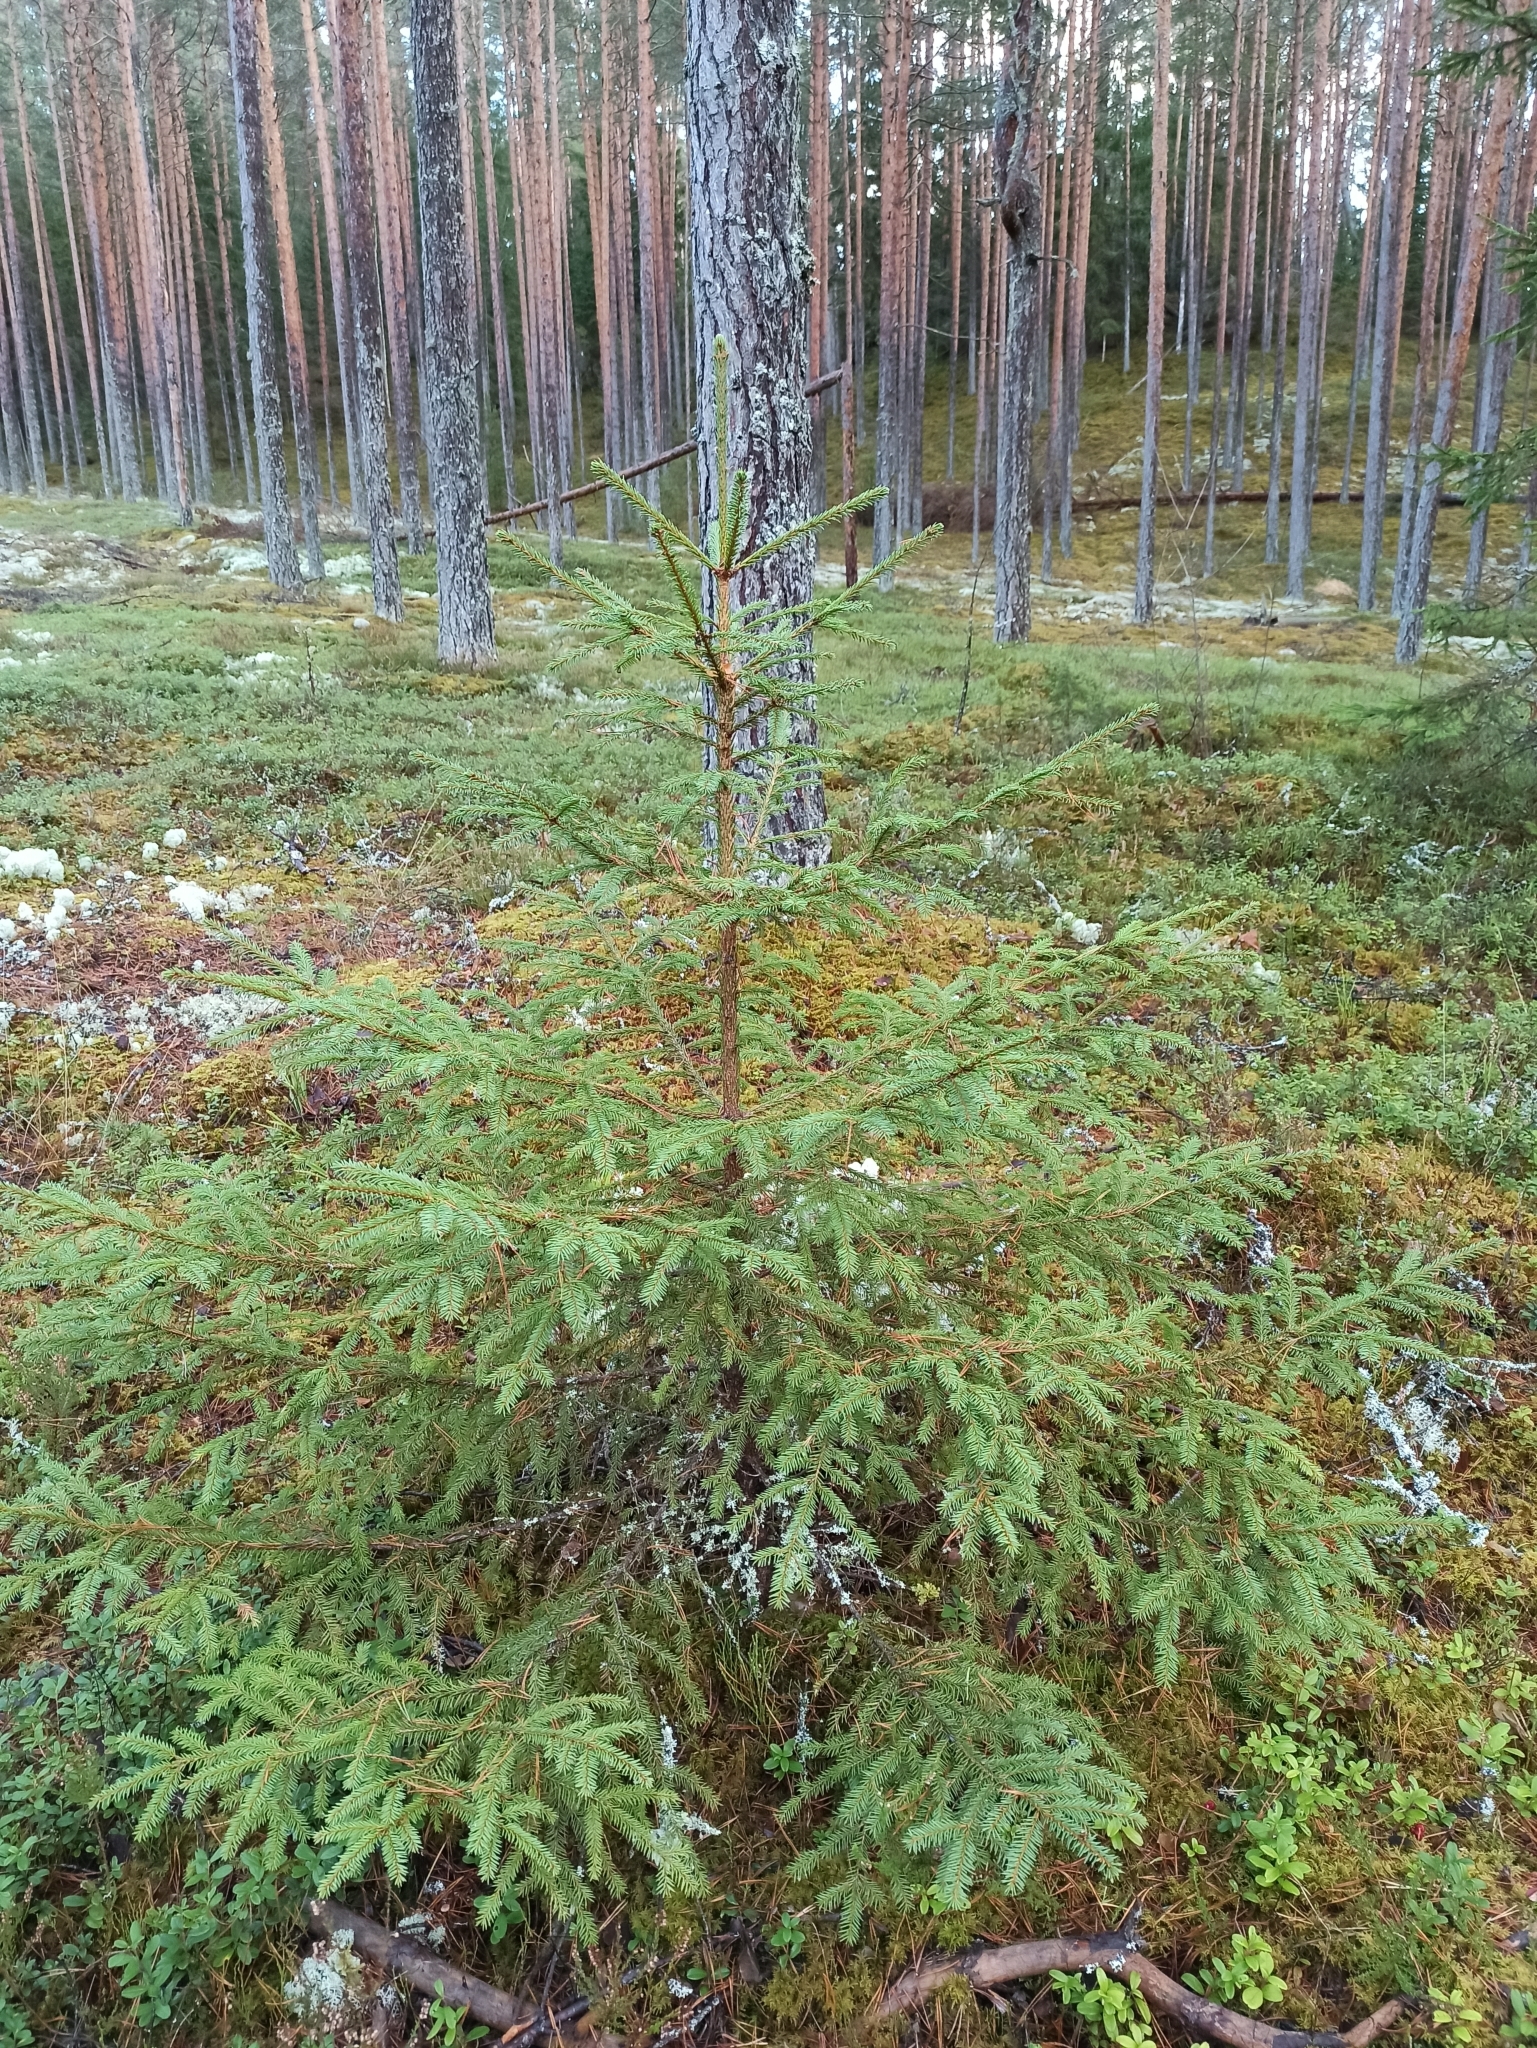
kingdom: Plantae
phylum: Tracheophyta
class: Pinopsida
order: Pinales
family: Pinaceae
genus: Picea
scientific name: Picea abies
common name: Norway spruce
